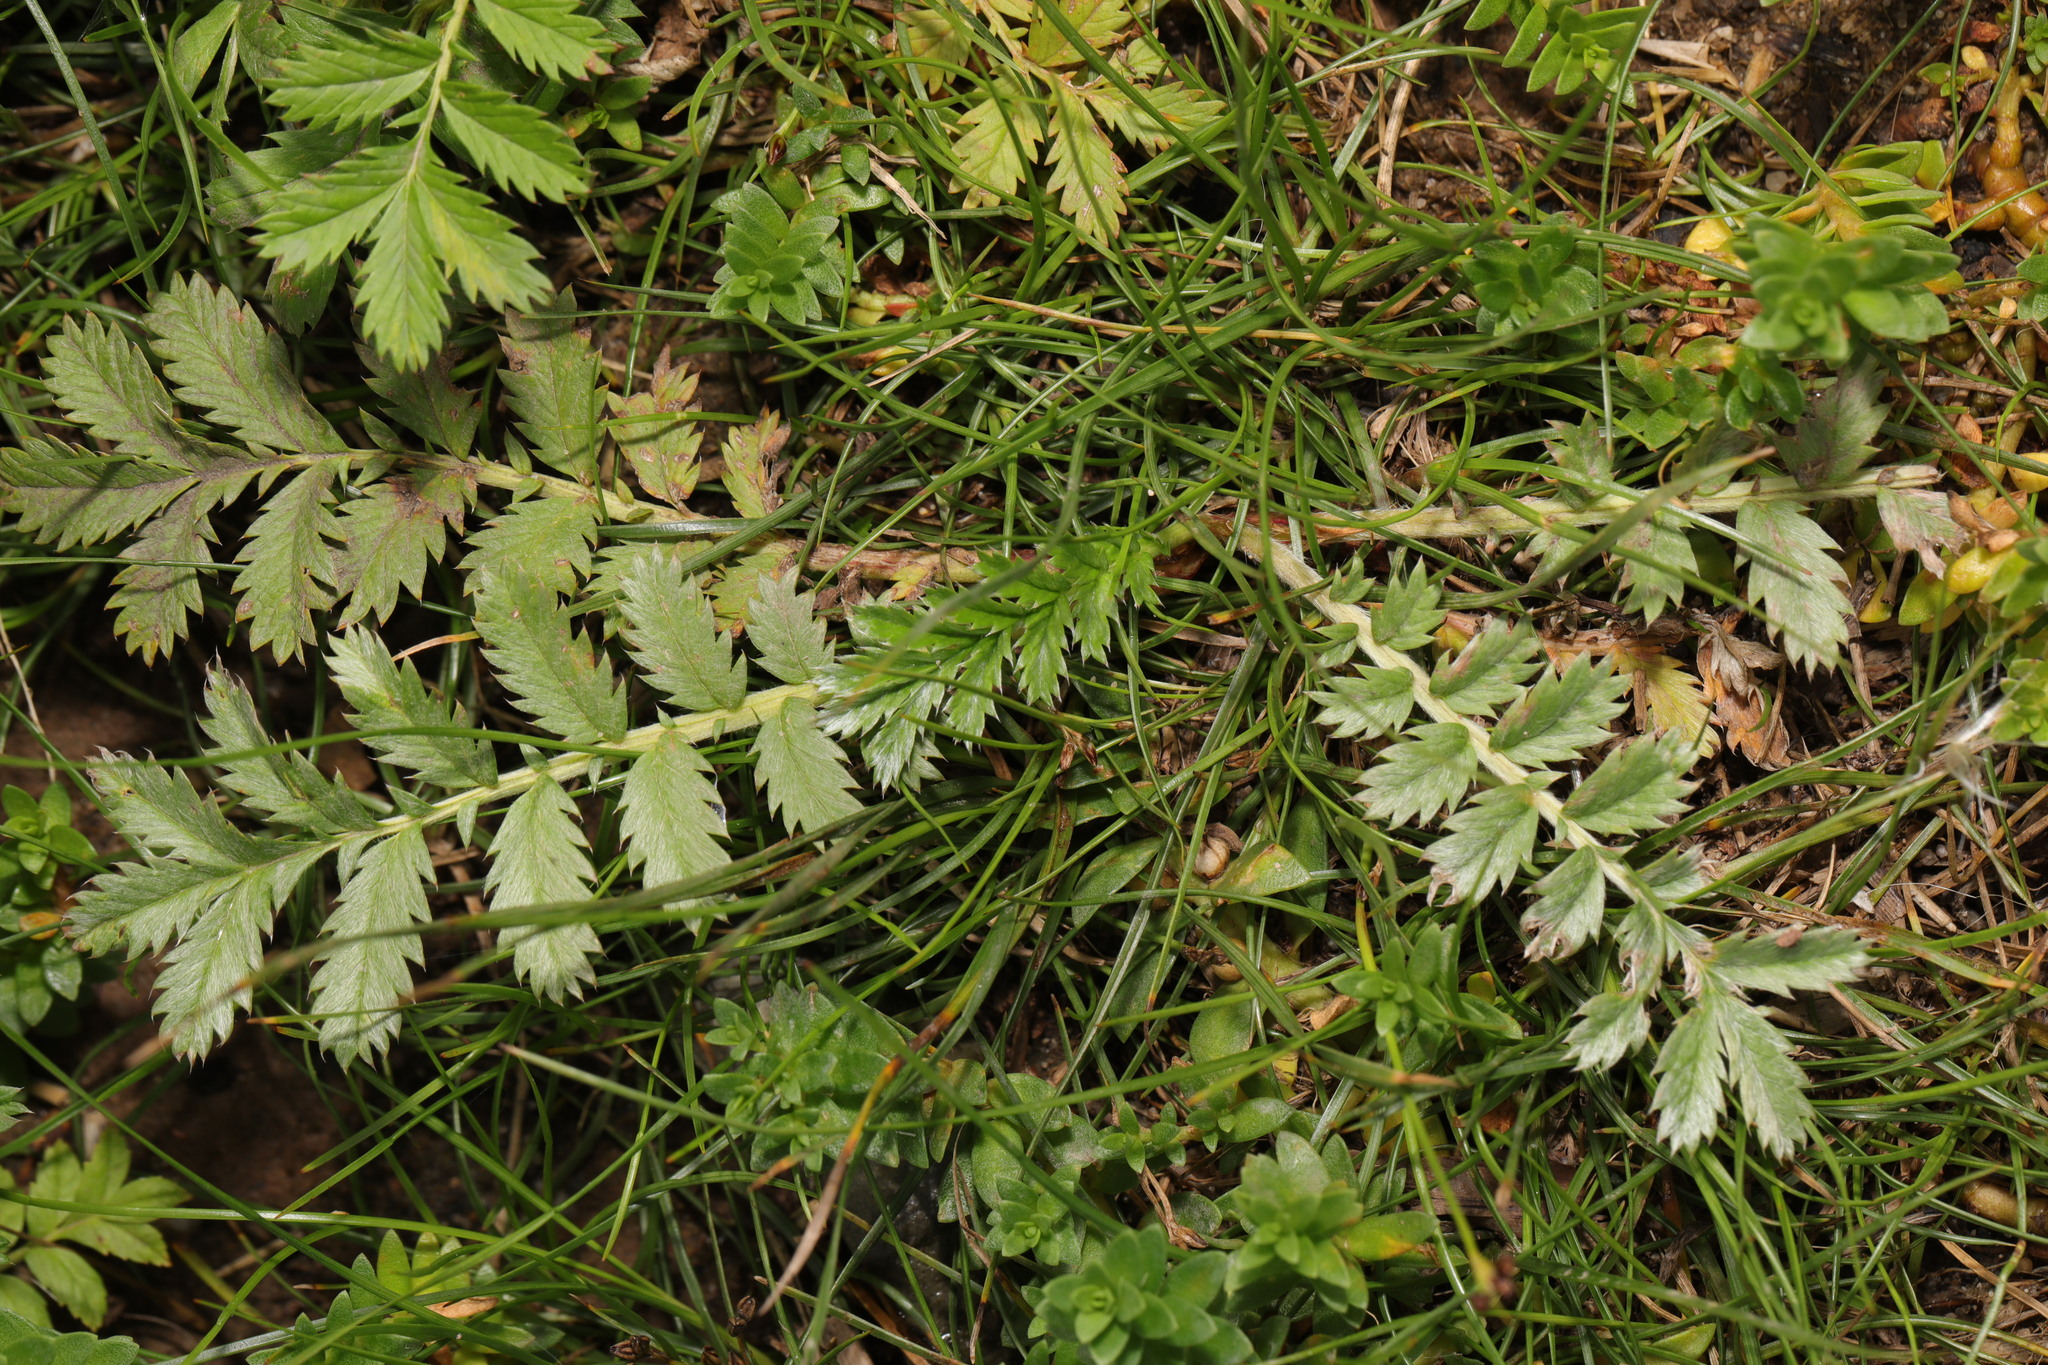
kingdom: Plantae
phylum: Tracheophyta
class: Magnoliopsida
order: Rosales
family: Rosaceae
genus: Argentina
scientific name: Argentina anserina
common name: Common silverweed
